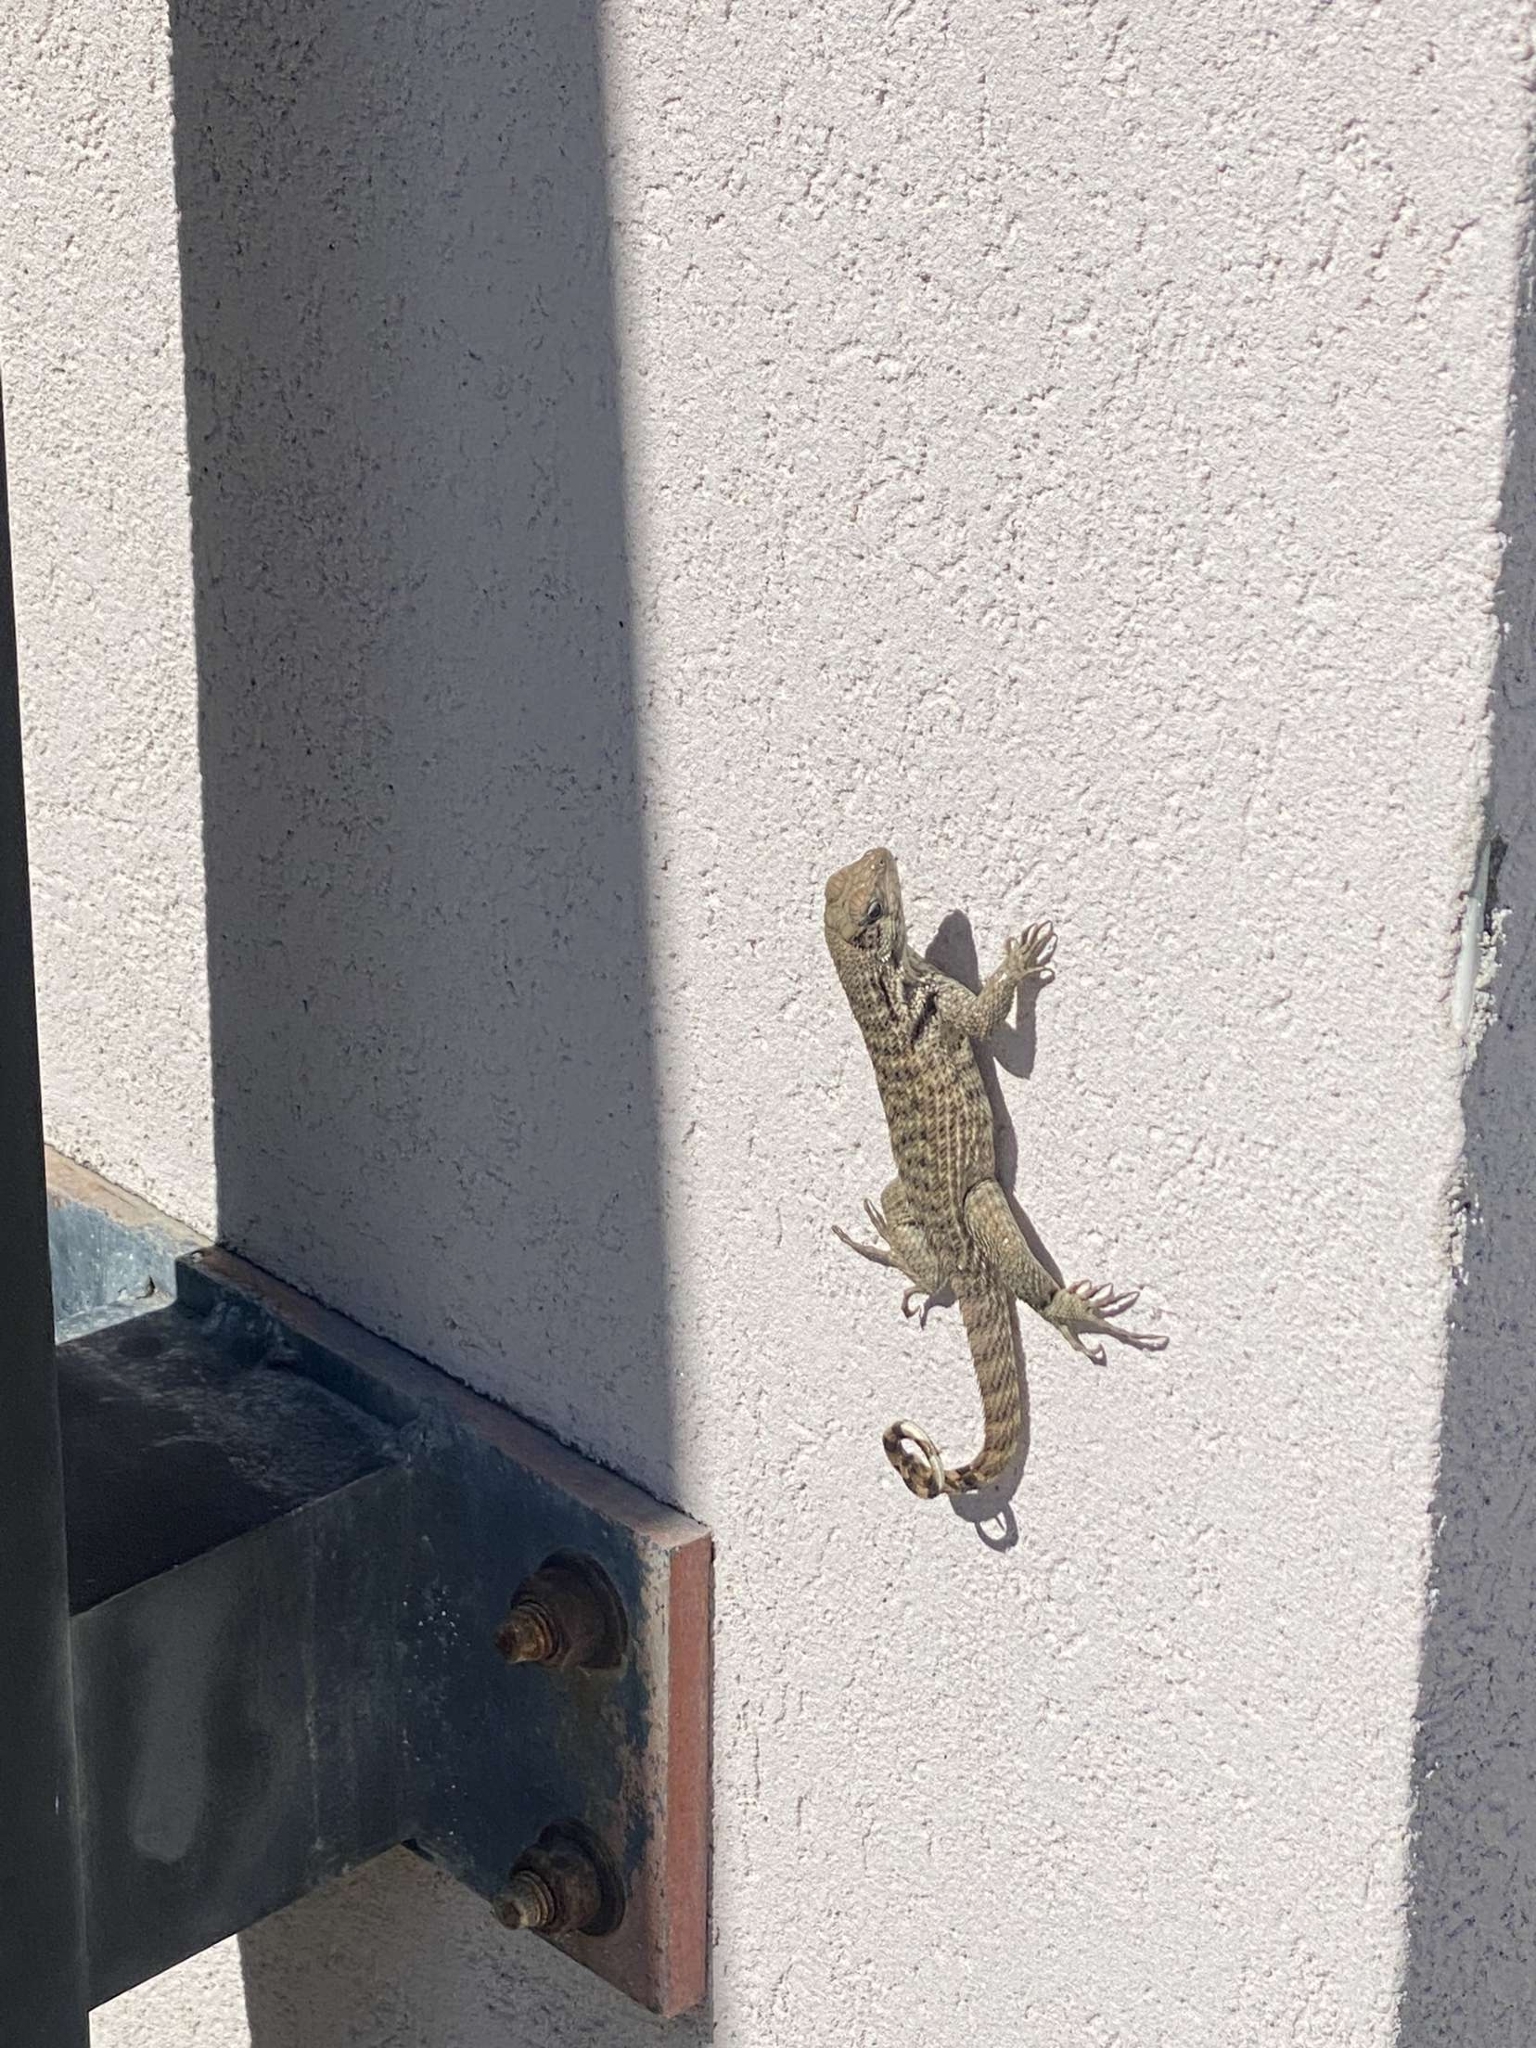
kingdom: Animalia
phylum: Chordata
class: Squamata
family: Leiocephalidae
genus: Leiocephalus
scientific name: Leiocephalus psammodromus
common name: Bastion cay curlytail lizard
